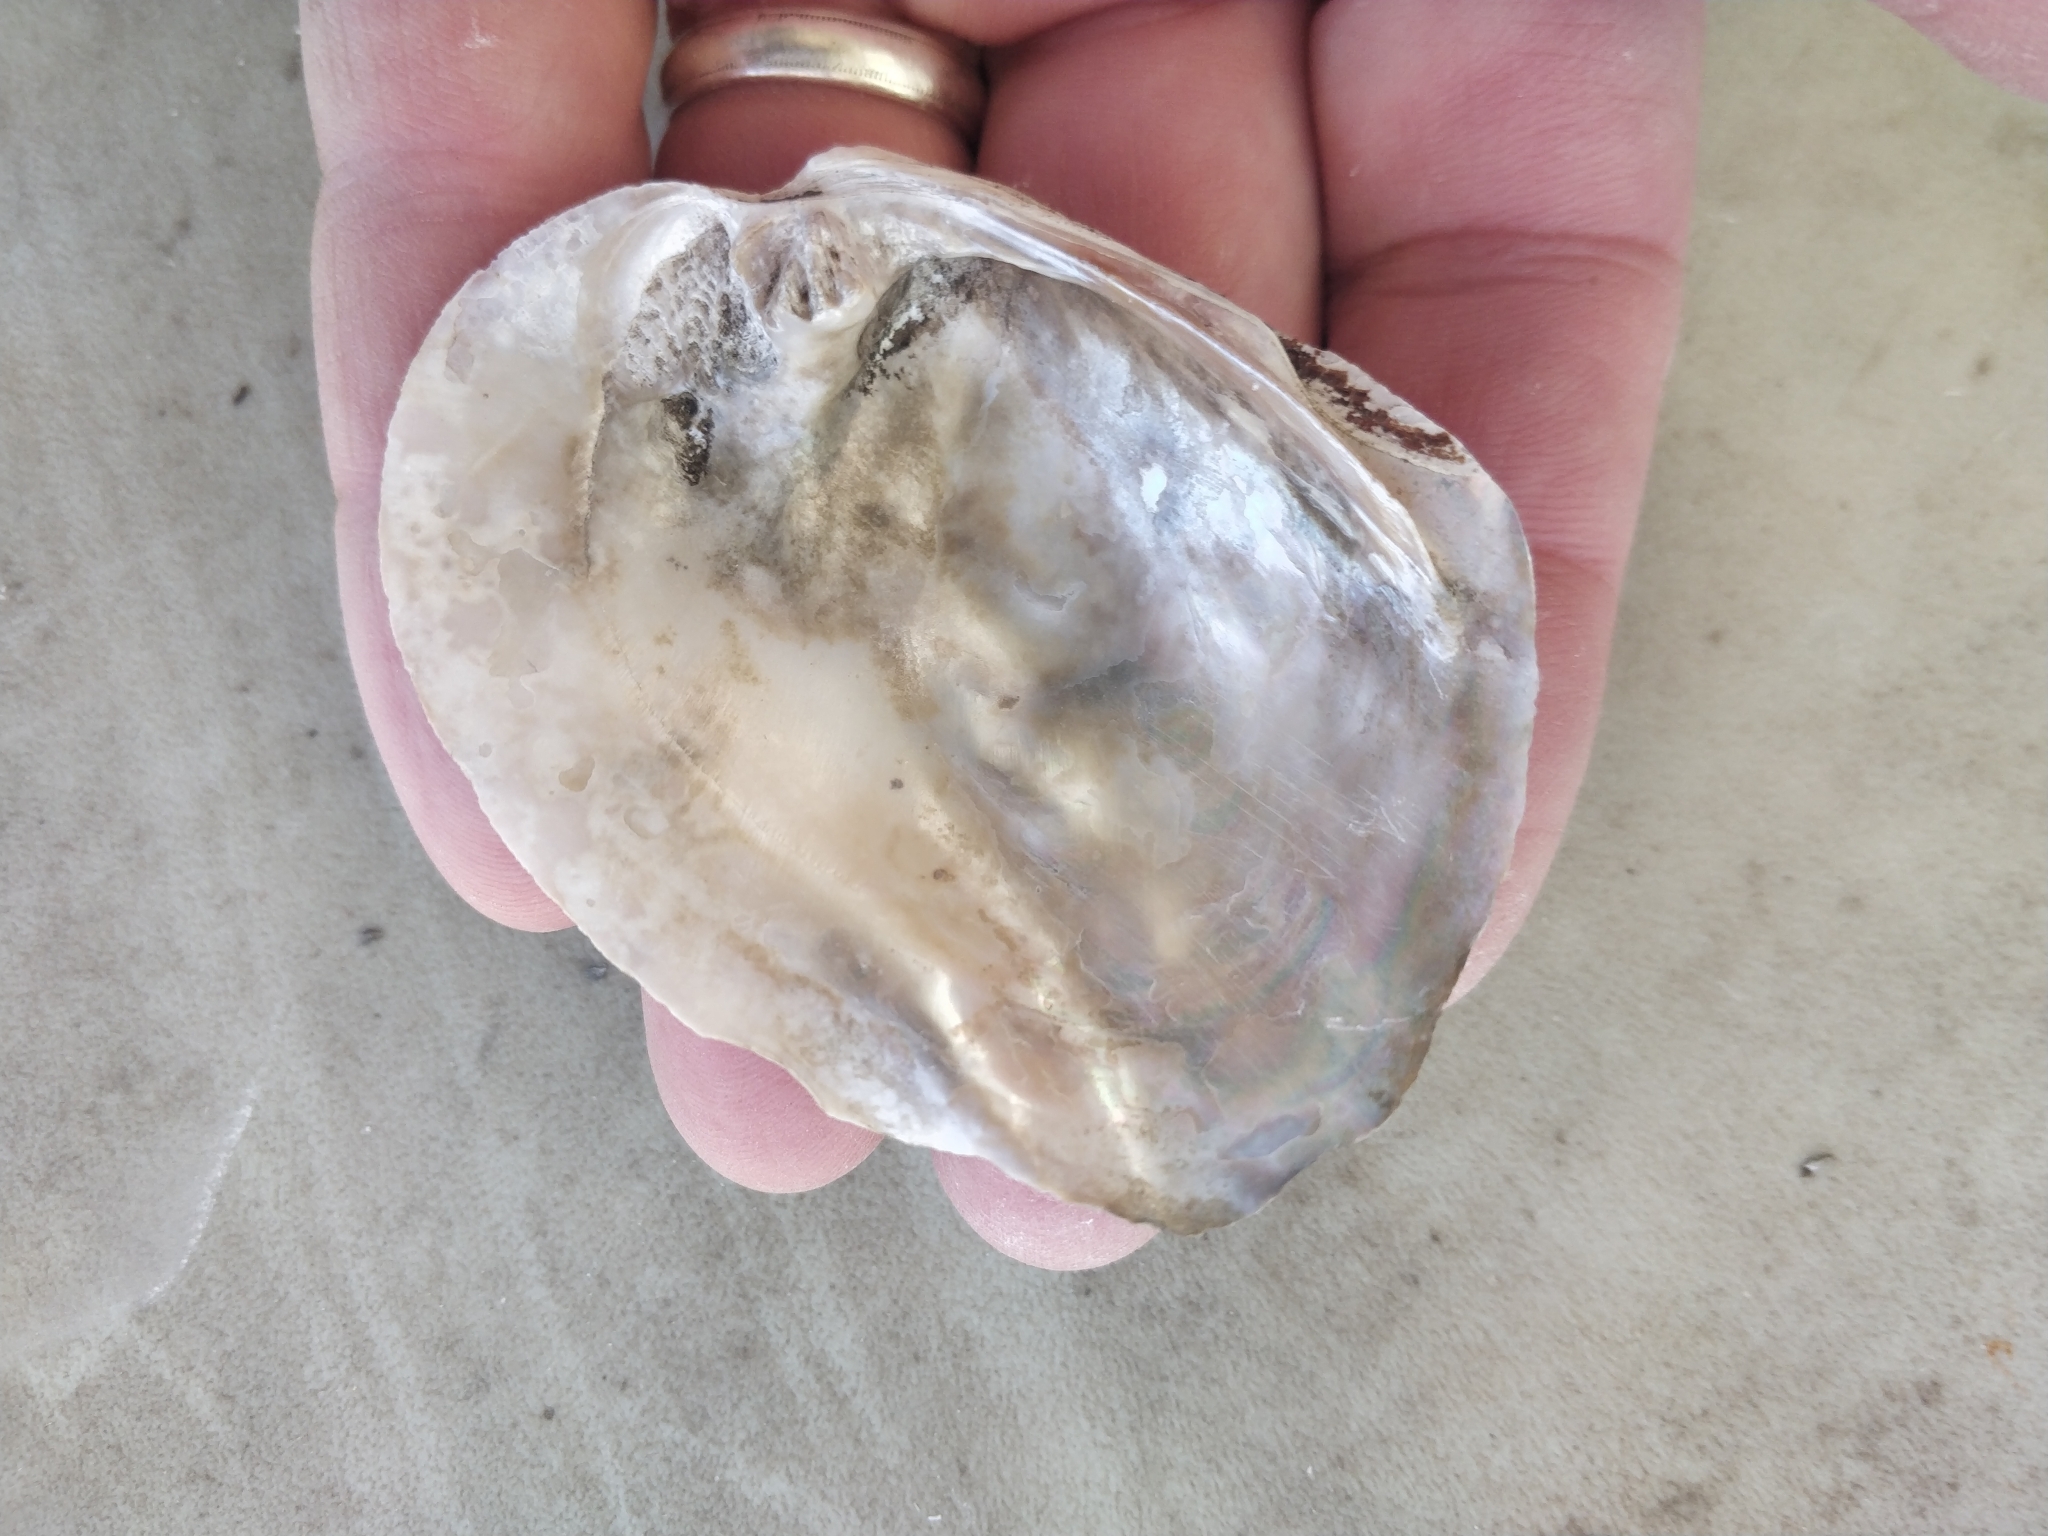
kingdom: Animalia
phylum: Mollusca
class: Bivalvia
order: Unionida
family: Unionidae
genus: Amblema
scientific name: Amblema plicata
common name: Threeridge
